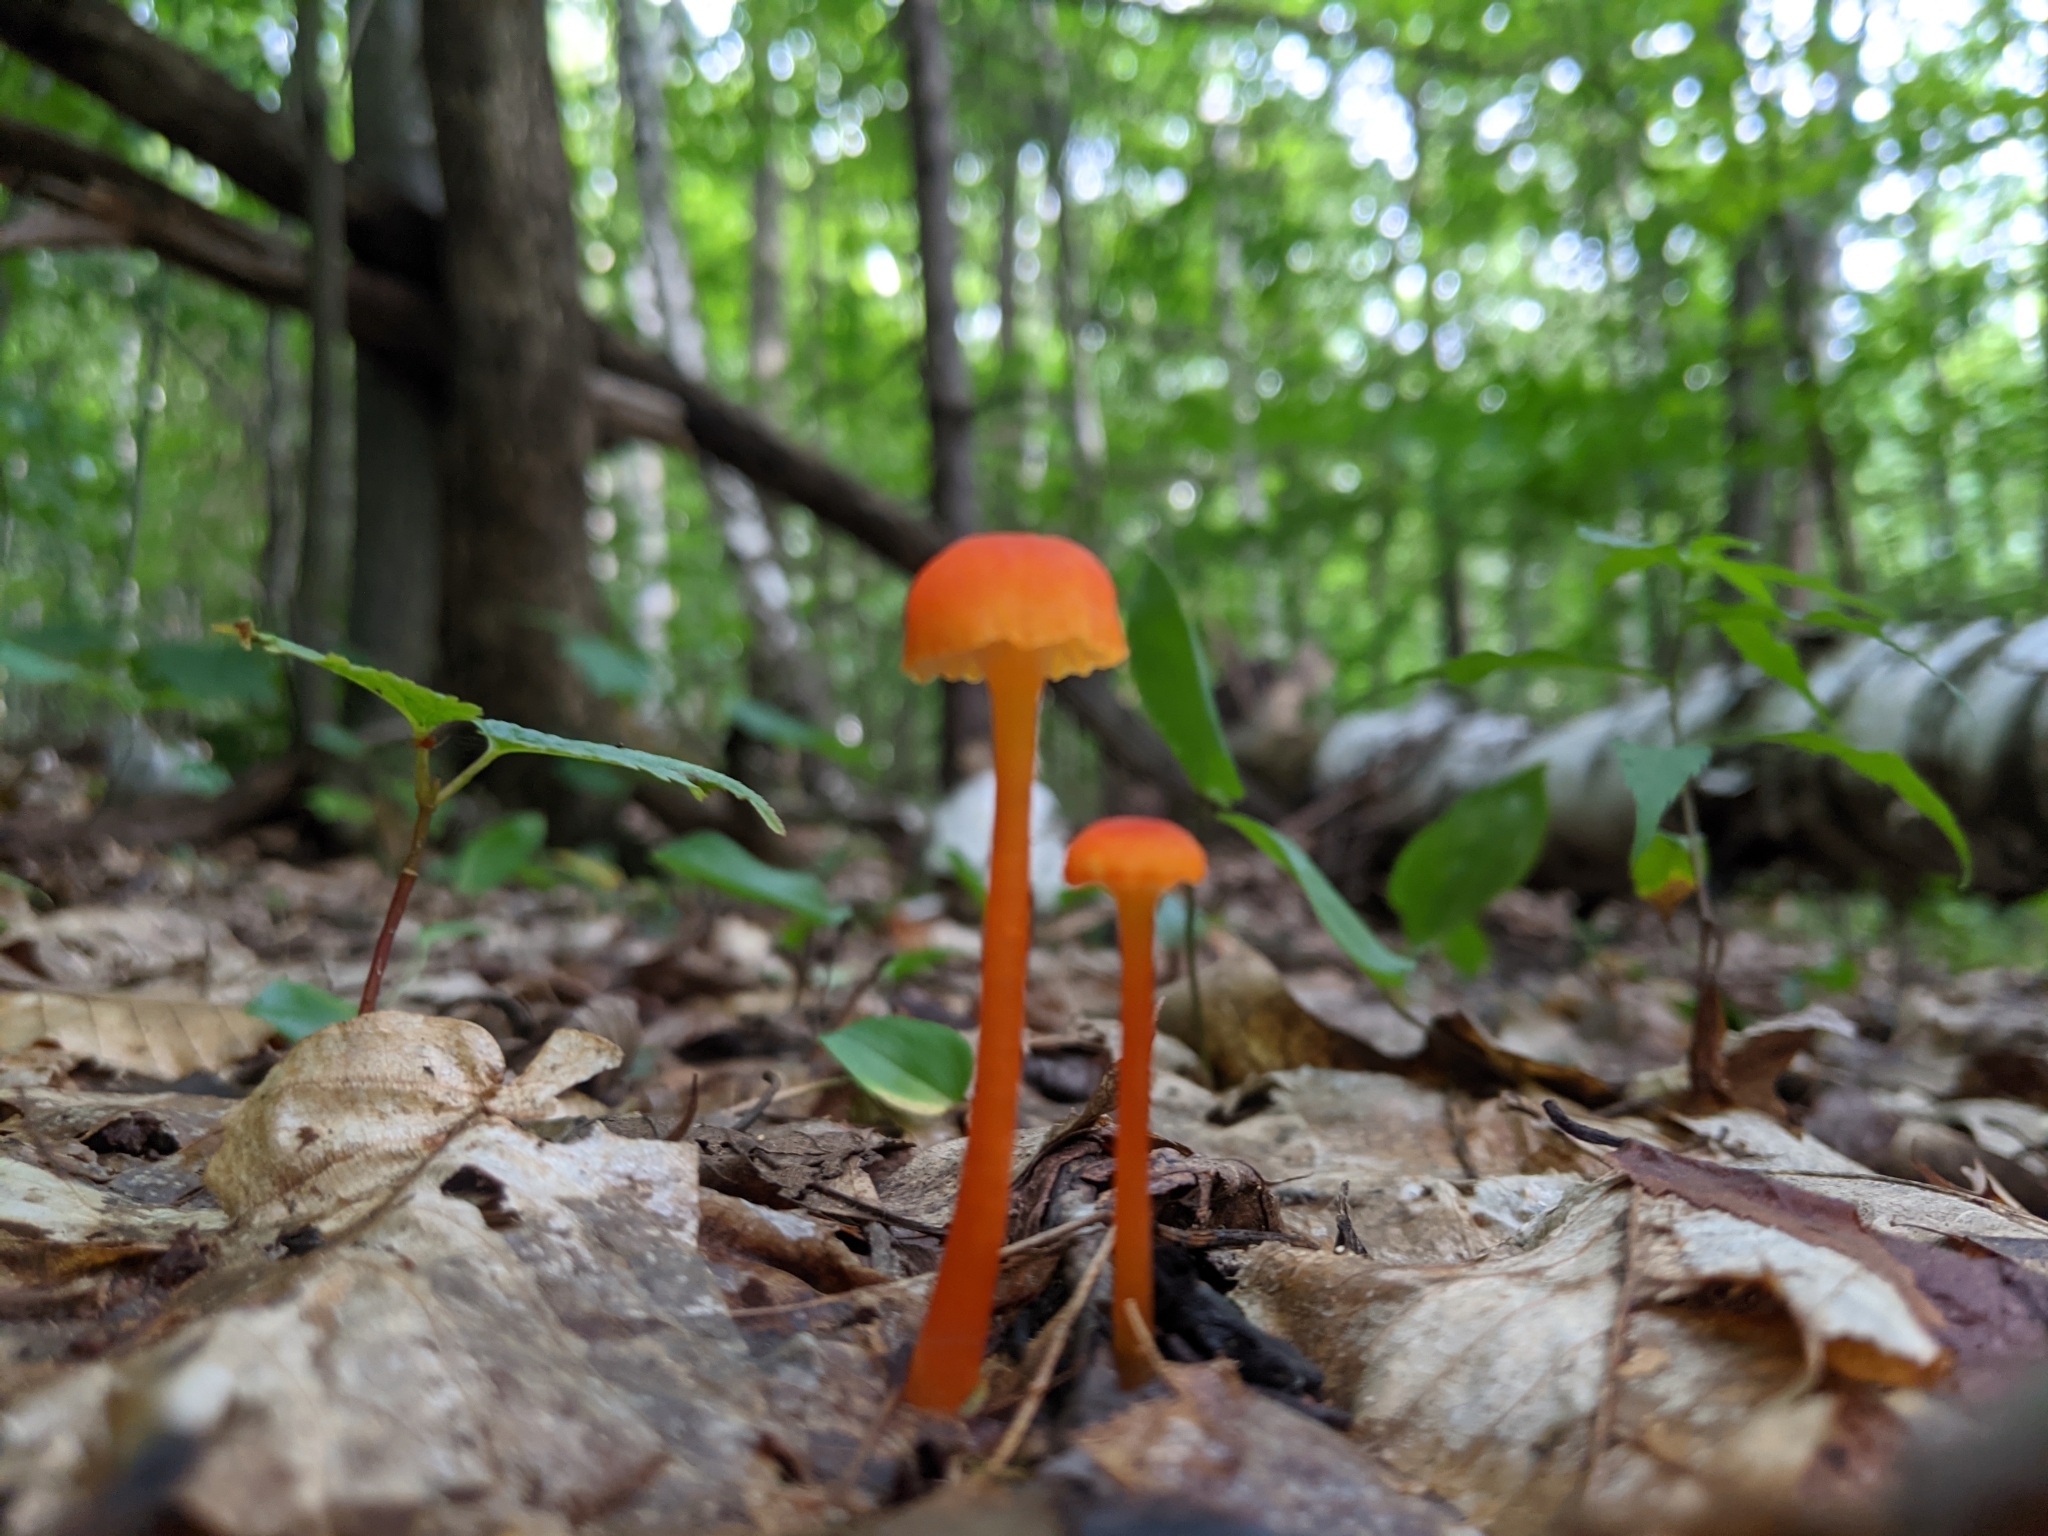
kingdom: Fungi
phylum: Basidiomycota
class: Agaricomycetes
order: Agaricales
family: Hygrophoraceae
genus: Hygrocybe
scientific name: Hygrocybe cantharellus
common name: Goblet waxcap
